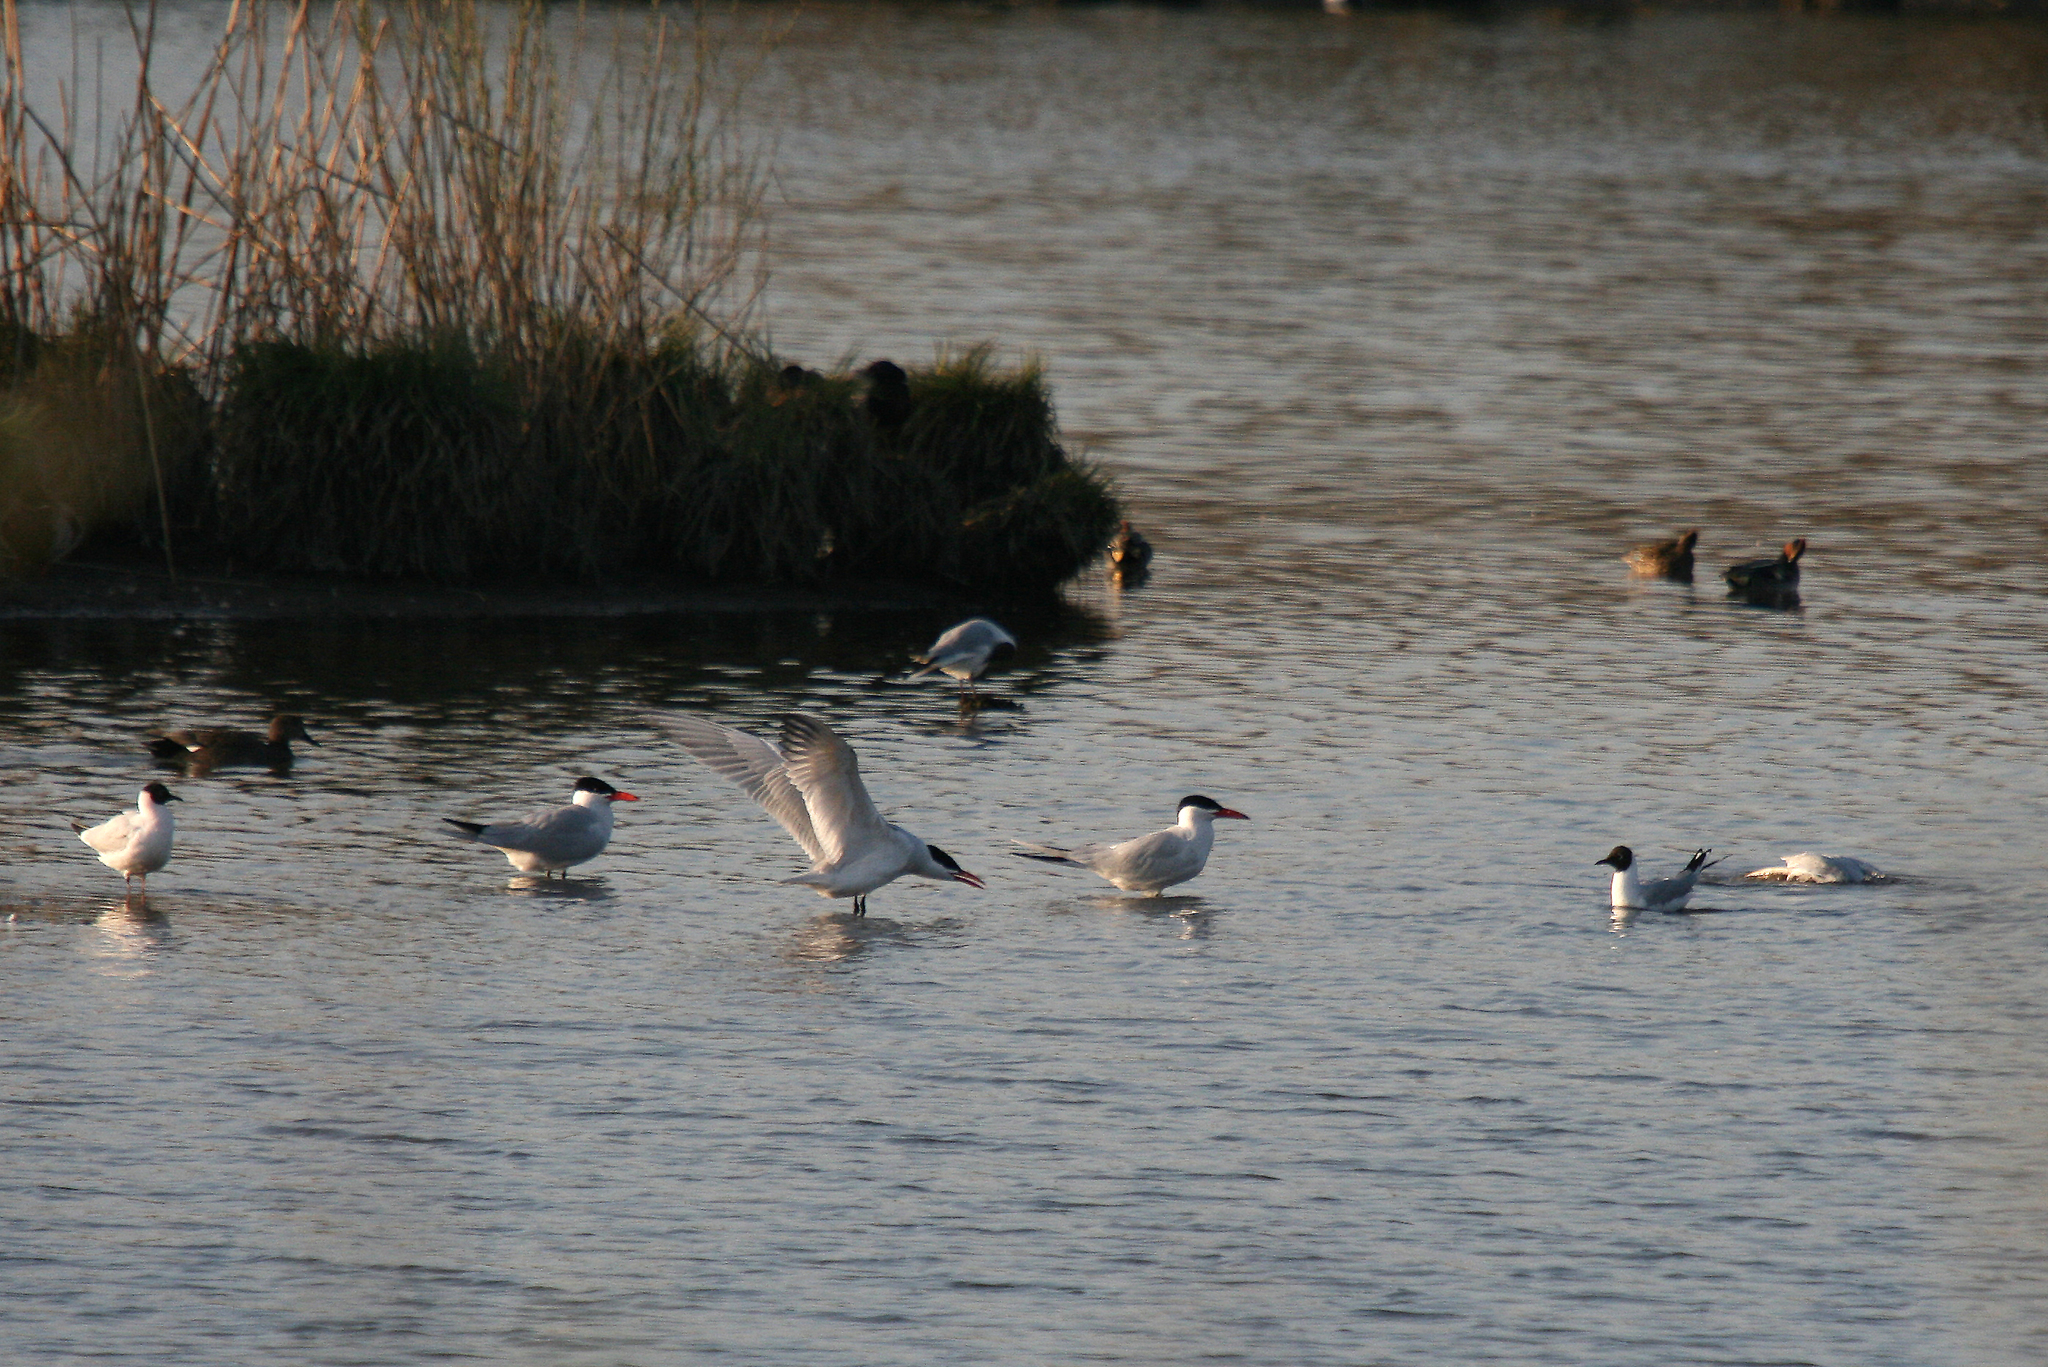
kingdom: Animalia
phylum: Chordata
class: Aves
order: Charadriiformes
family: Laridae
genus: Hydroprogne
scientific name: Hydroprogne caspia
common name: Caspian tern
